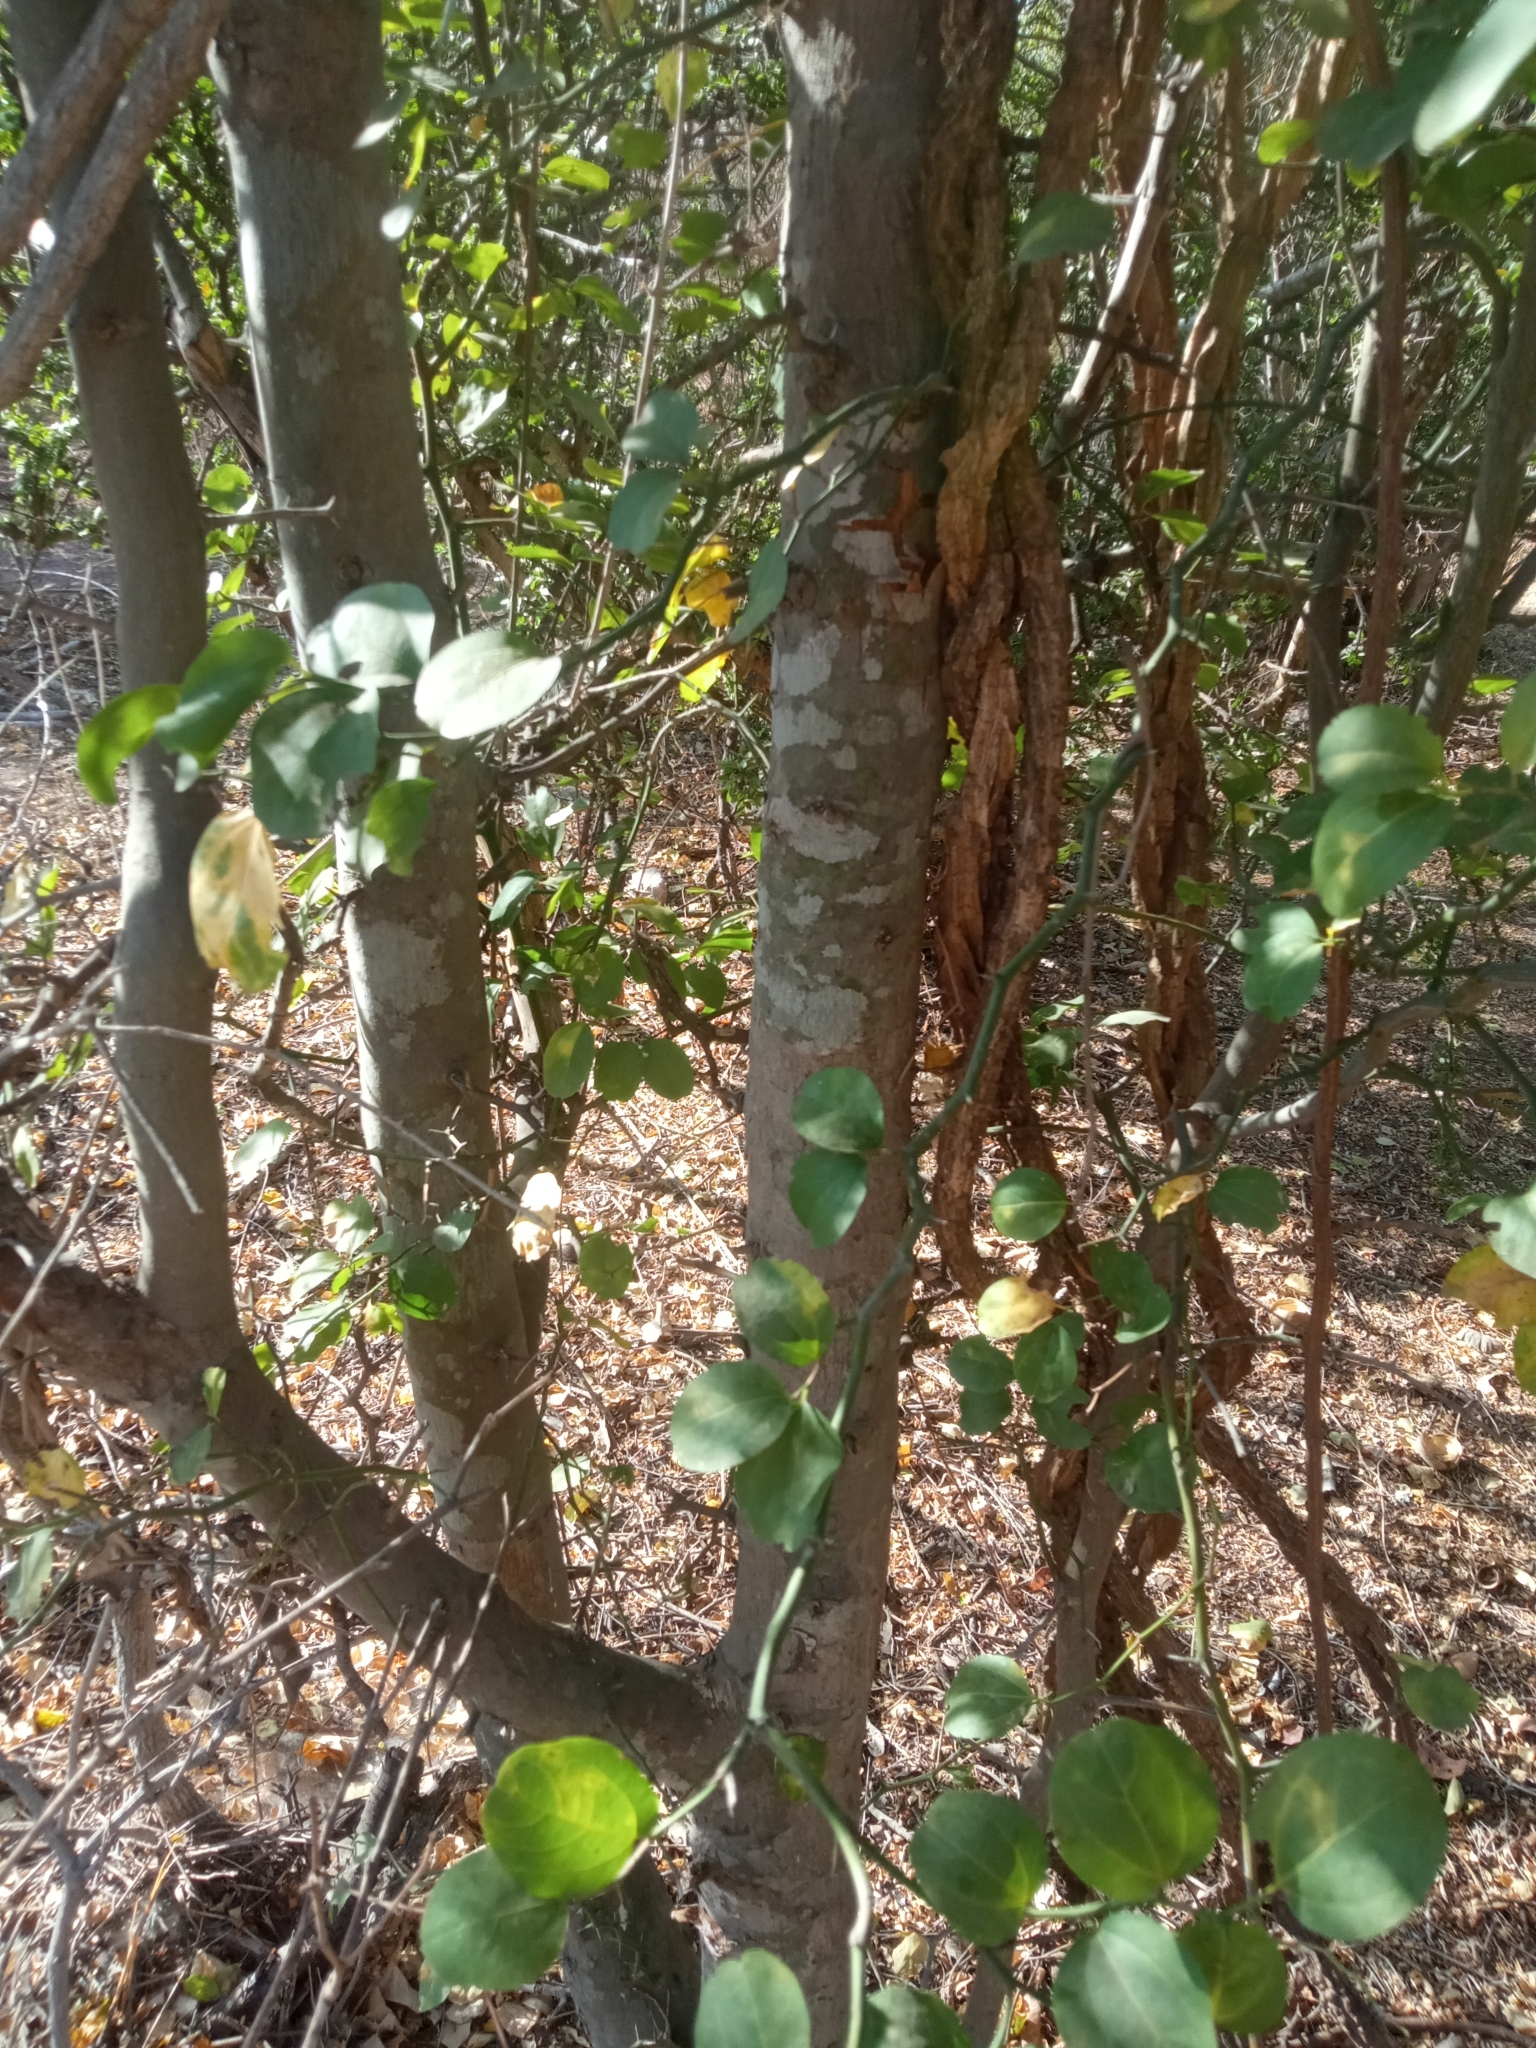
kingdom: Plantae
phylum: Tracheophyta
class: Magnoliopsida
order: Rosales
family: Rhamnaceae
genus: Sarcomphalus
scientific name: Sarcomphalus amole
